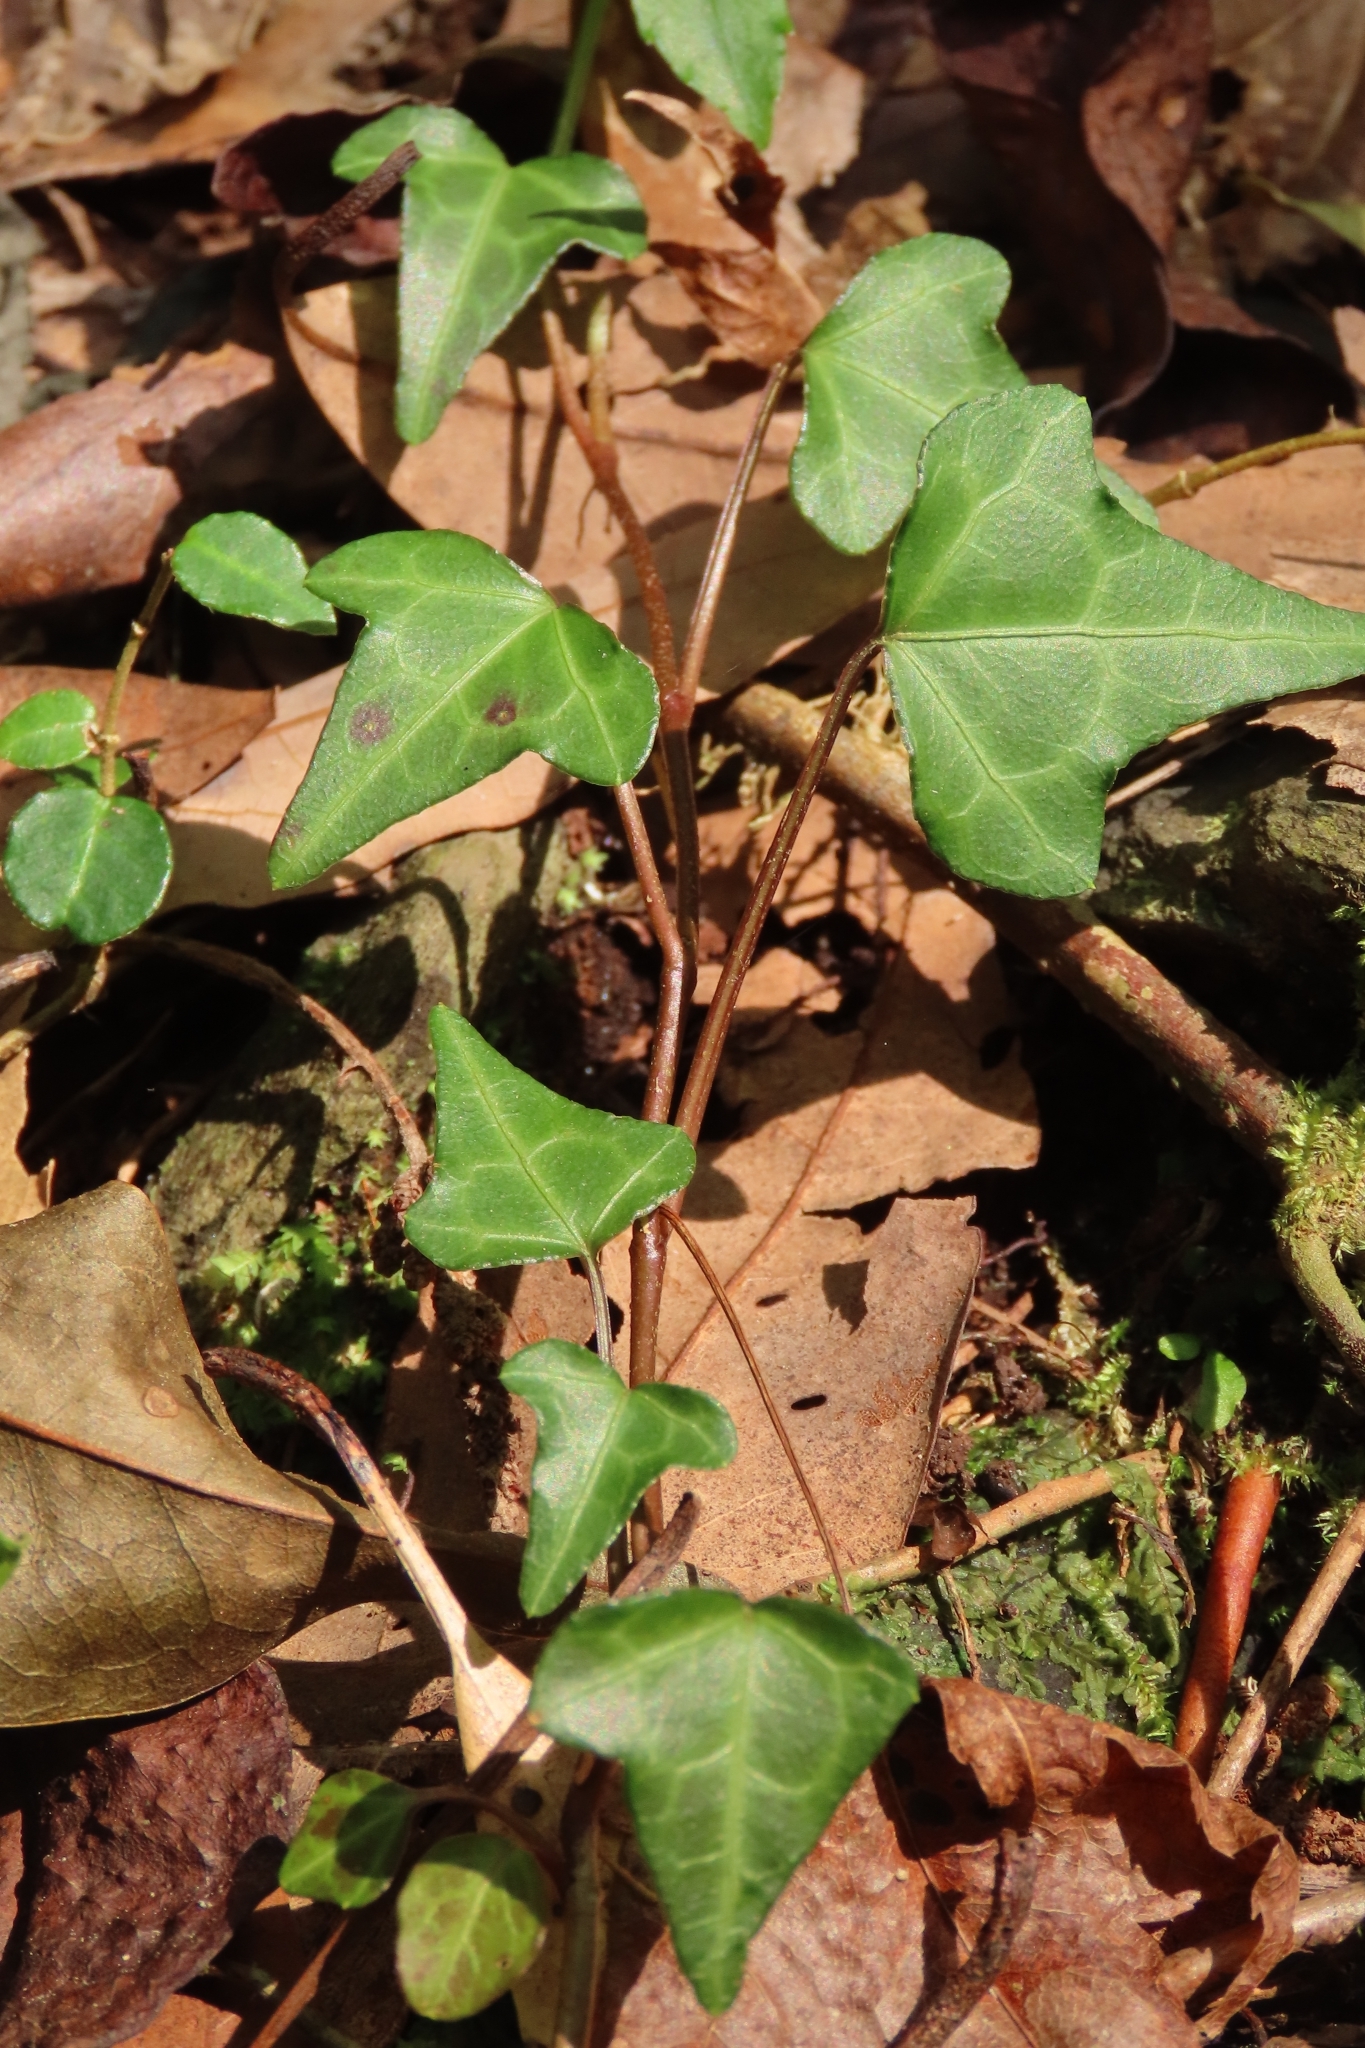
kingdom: Plantae
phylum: Tracheophyta
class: Magnoliopsida
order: Apiales
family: Araliaceae
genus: Hedera
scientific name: Hedera rhombea
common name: Japanese ivy
